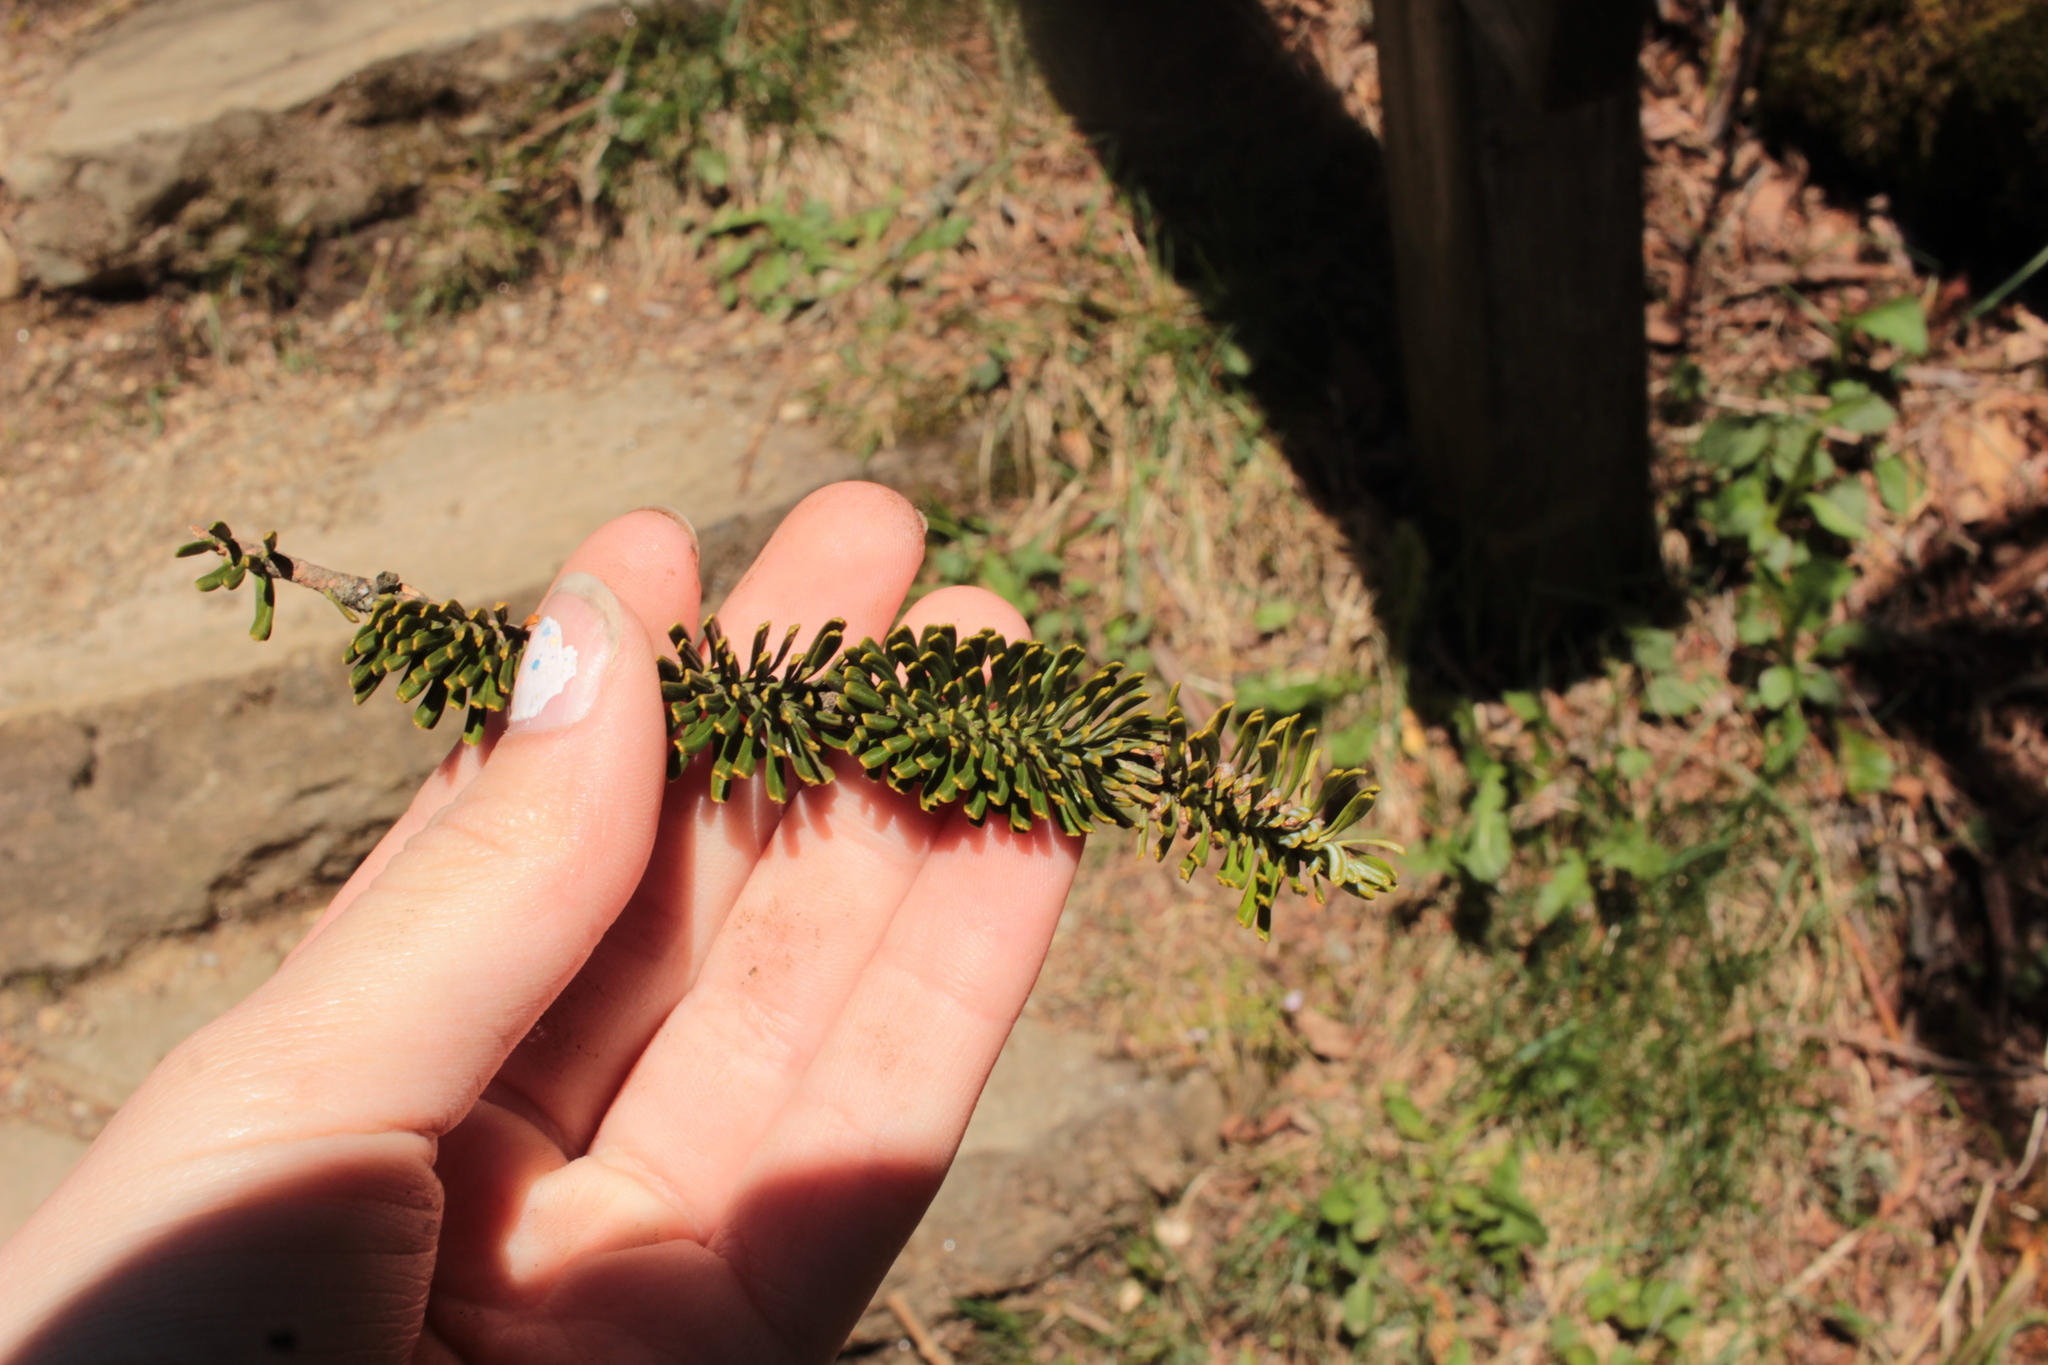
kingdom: Plantae
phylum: Tracheophyta
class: Pinopsida
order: Pinales
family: Pinaceae
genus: Abies
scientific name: Abies fraseri
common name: Fraser fir
